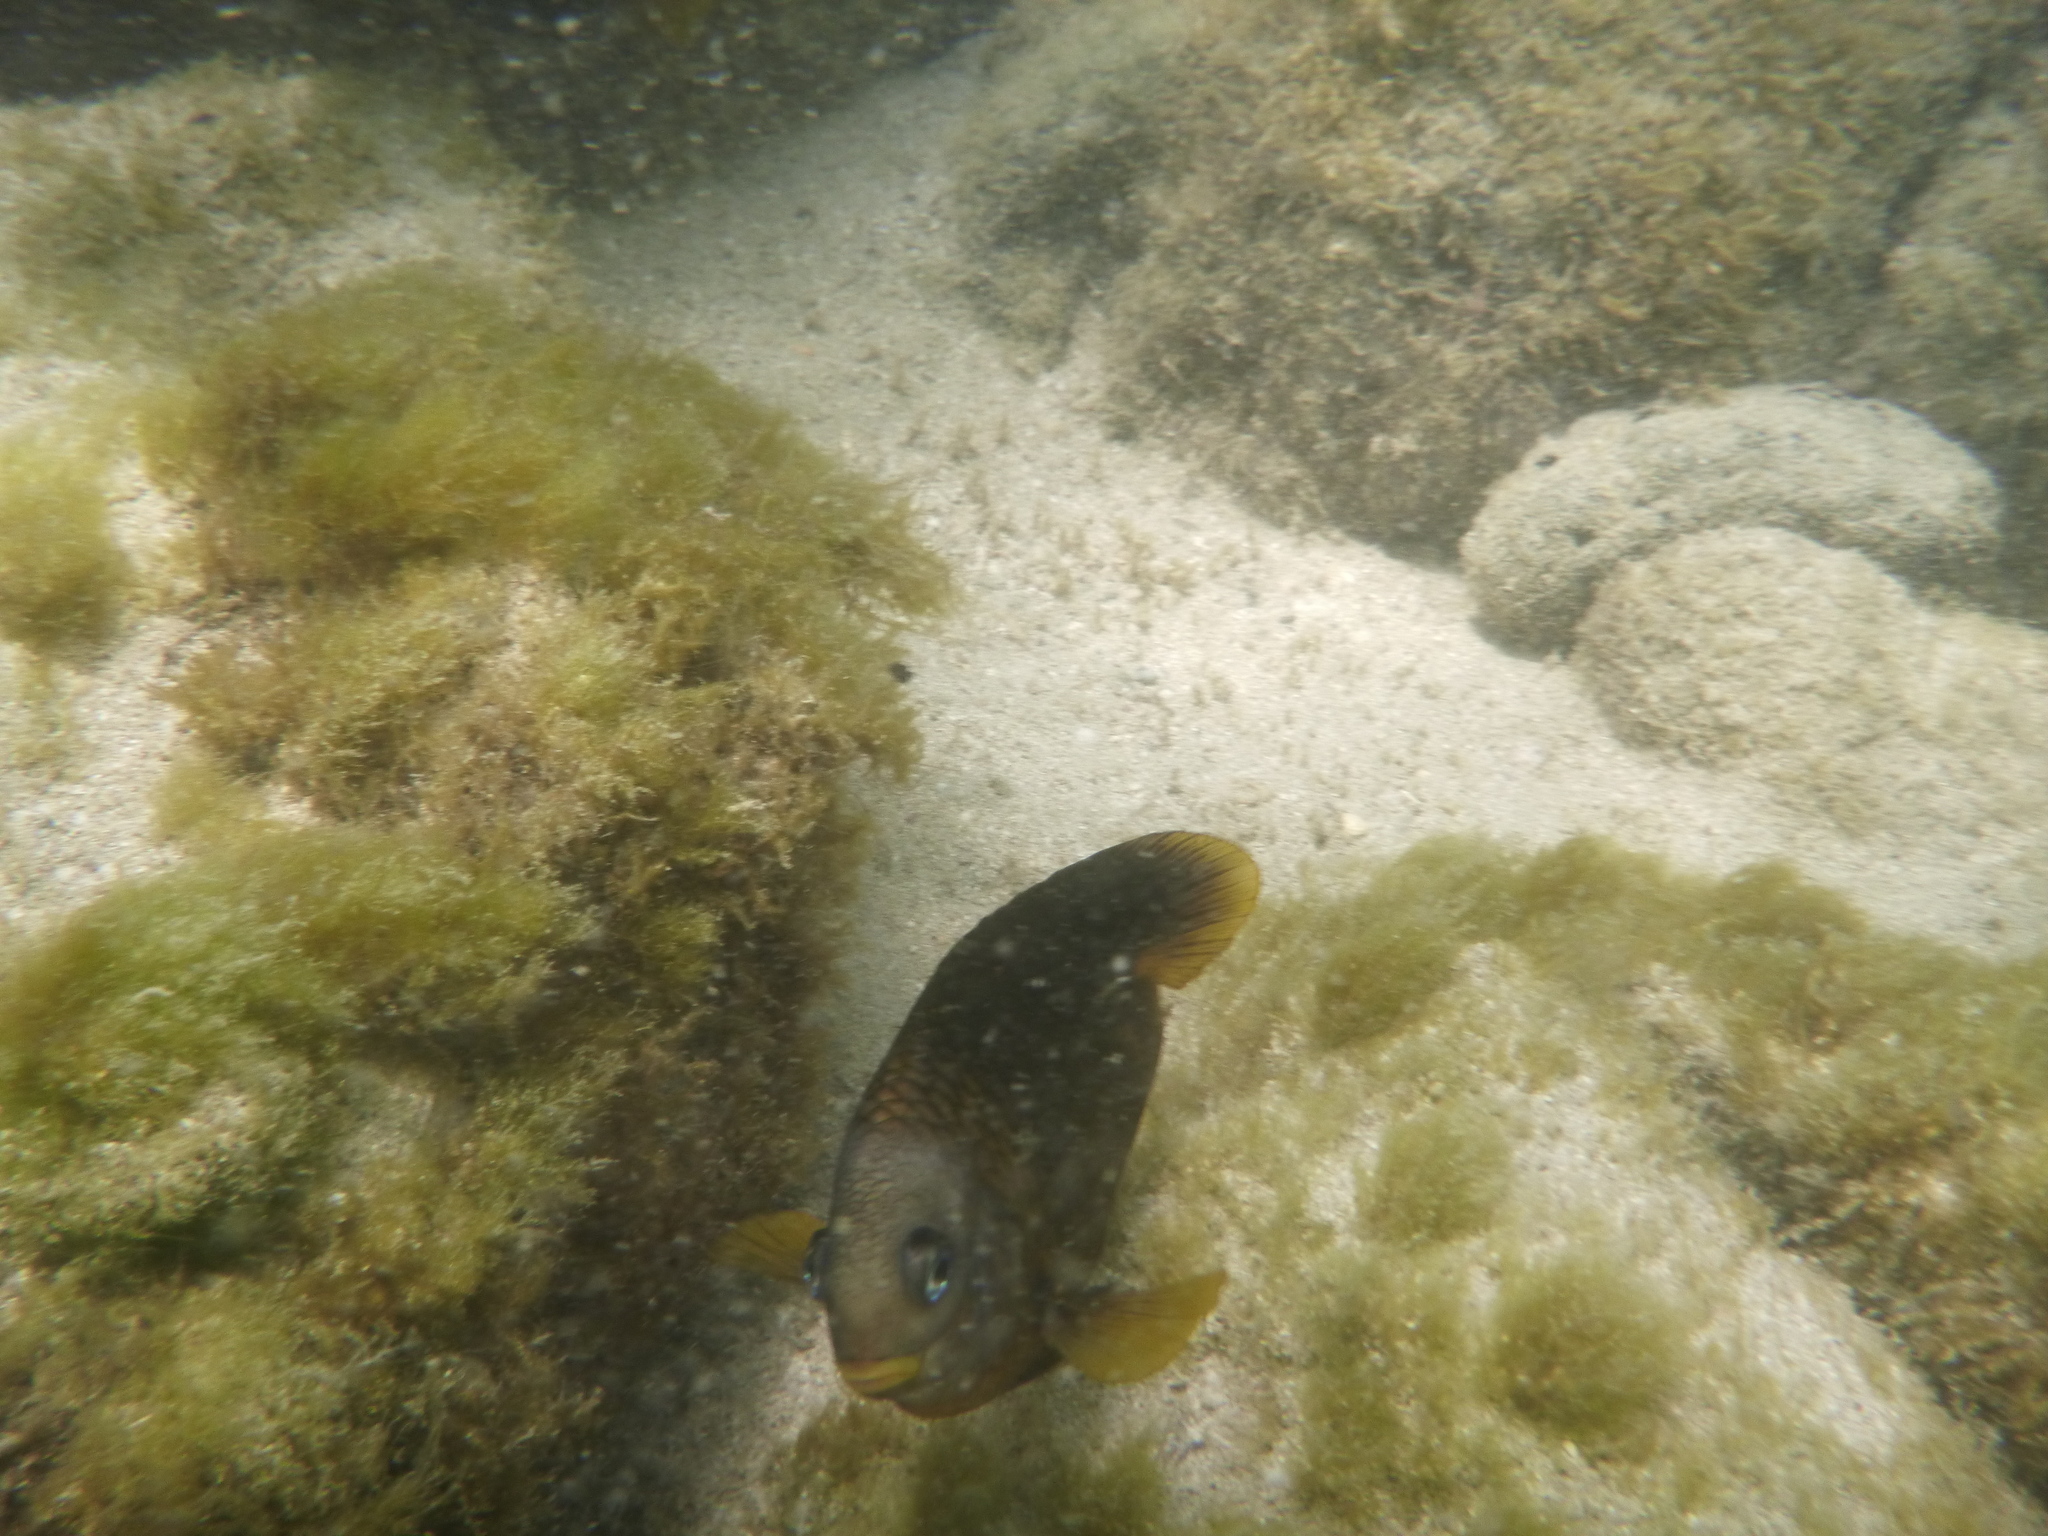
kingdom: Animalia
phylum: Chordata
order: Perciformes
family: Pomacentridae
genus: Stegastes
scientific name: Stegastes arcifrons
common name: Galapagos gregory
